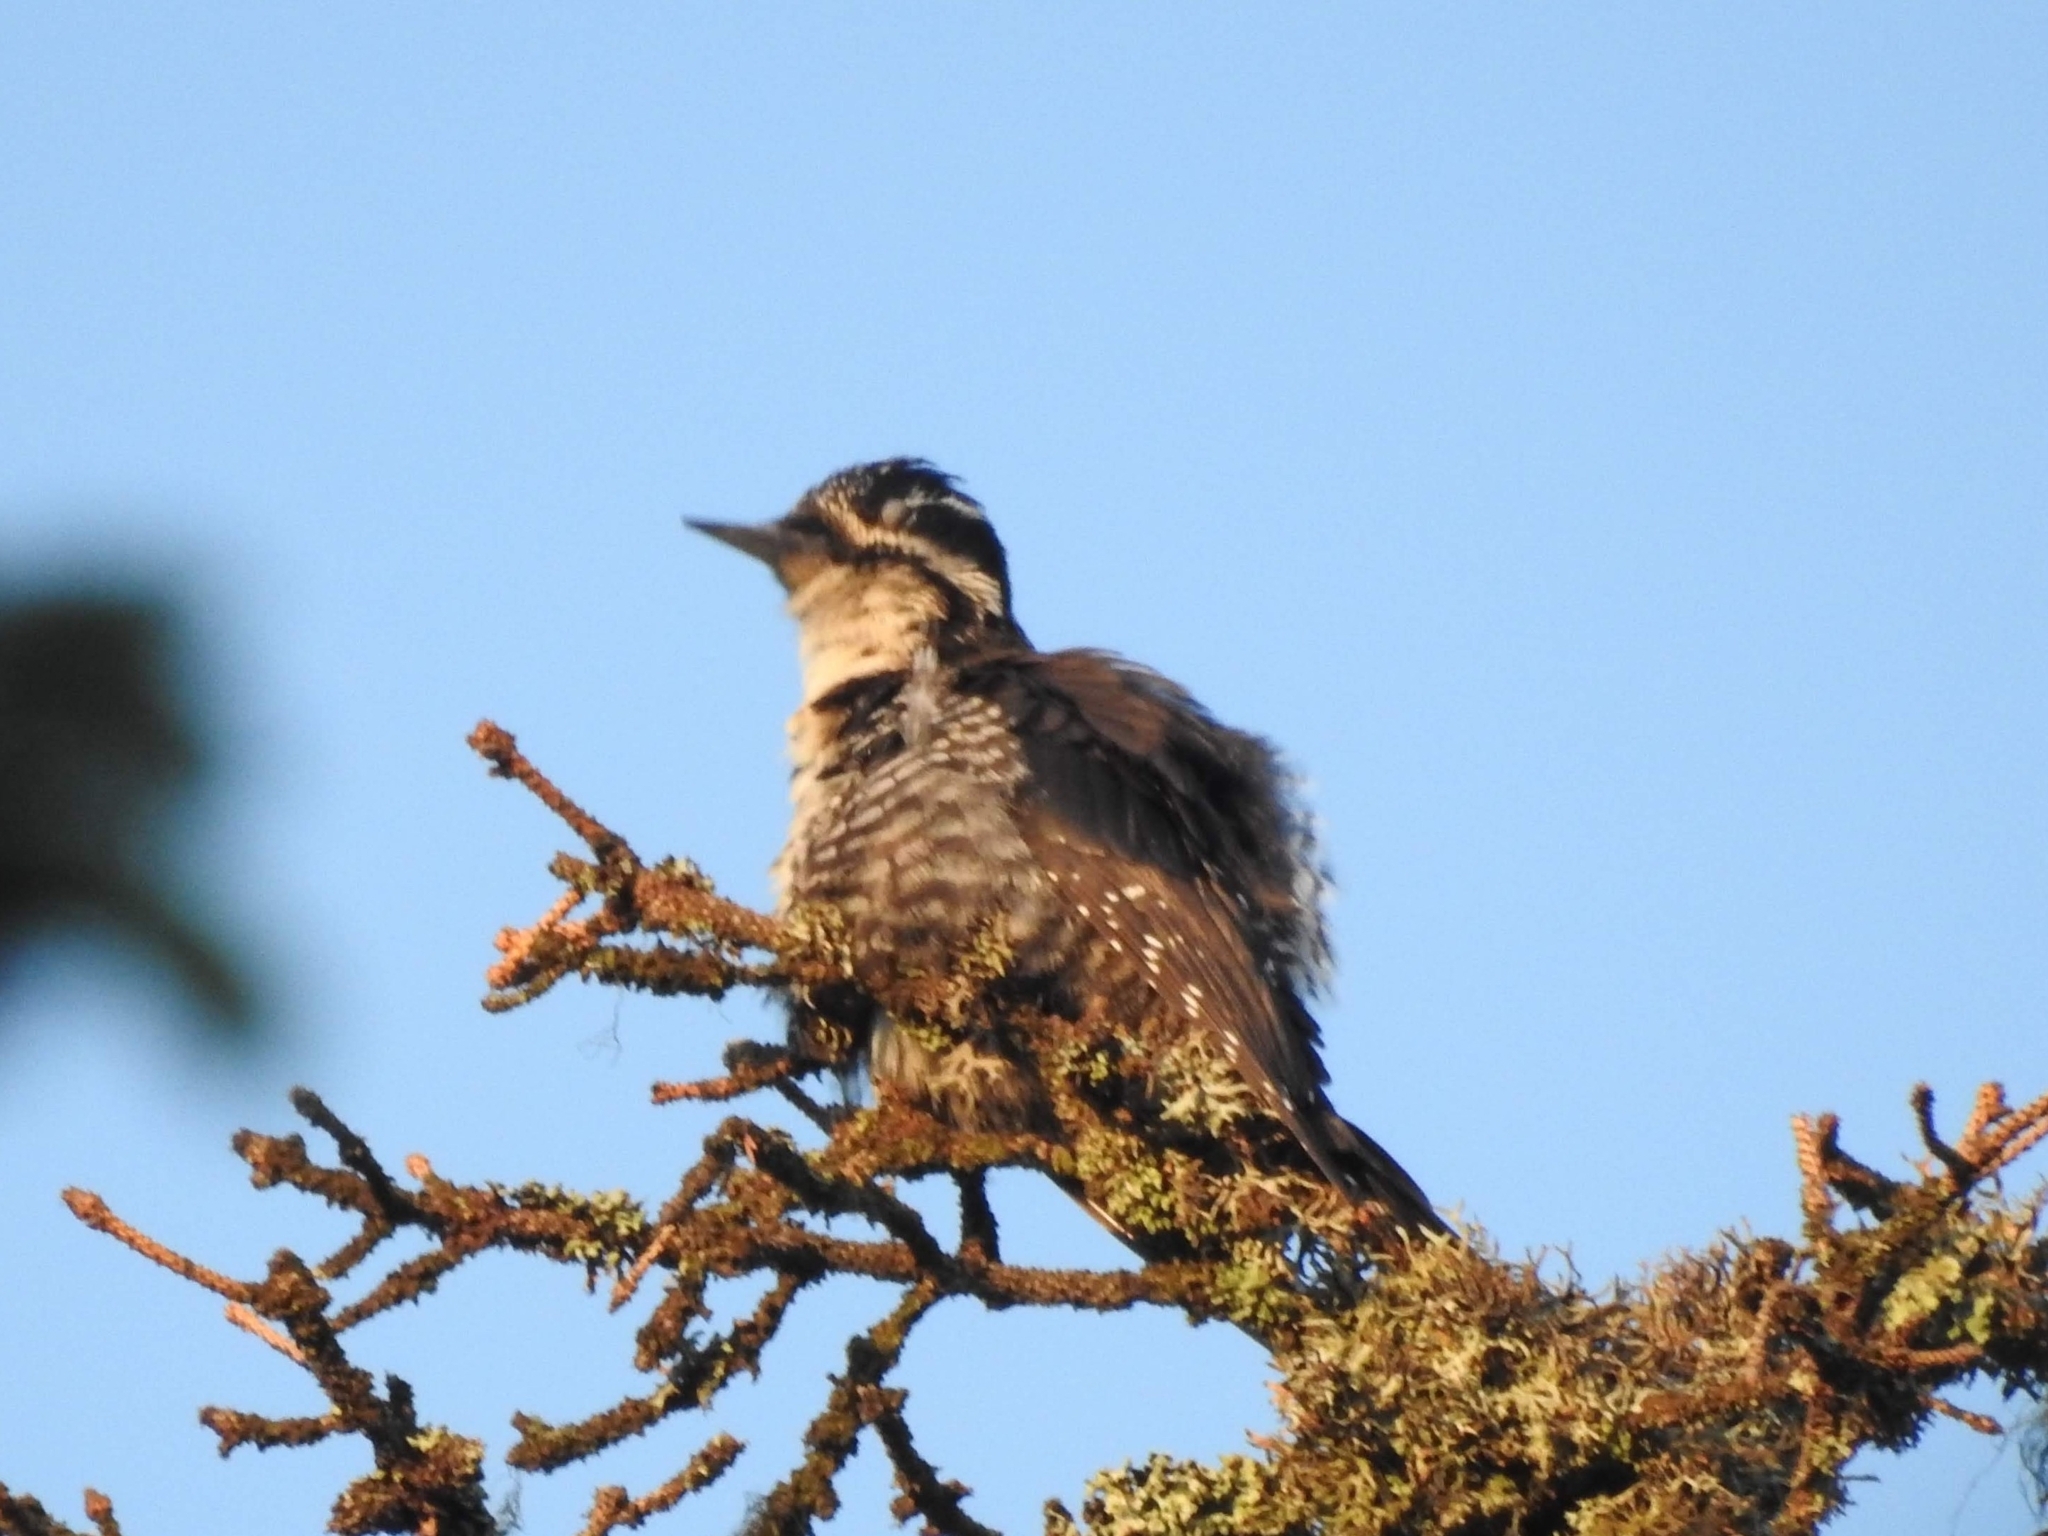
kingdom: Animalia
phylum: Chordata
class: Aves
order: Piciformes
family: Picidae
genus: Picoides
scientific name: Picoides tridactylus
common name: Eurasian three-toed woodpecker
